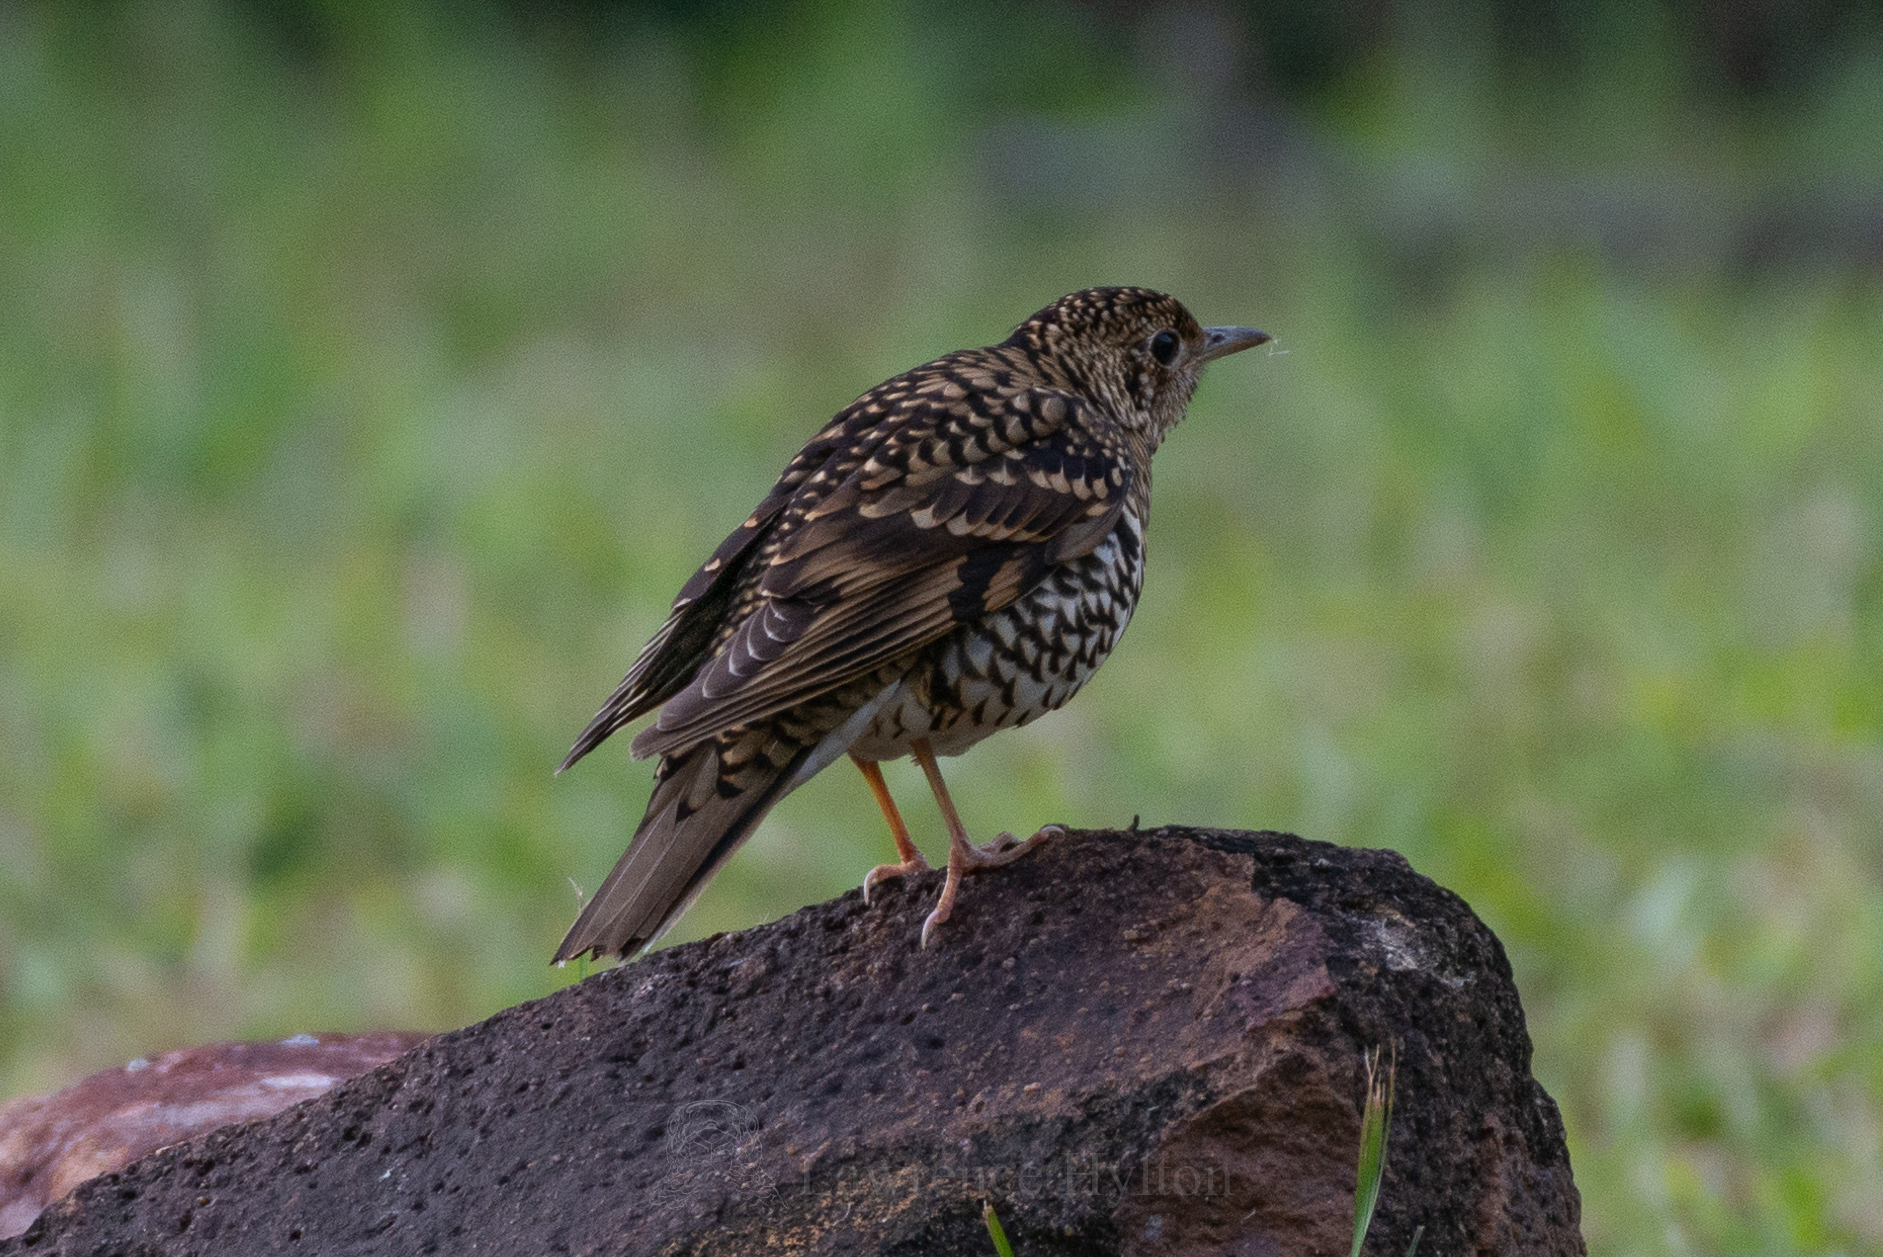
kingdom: Animalia
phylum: Chordata
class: Aves
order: Passeriformes
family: Turdidae
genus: Zoothera
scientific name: Zoothera aurea
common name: White's thrush
